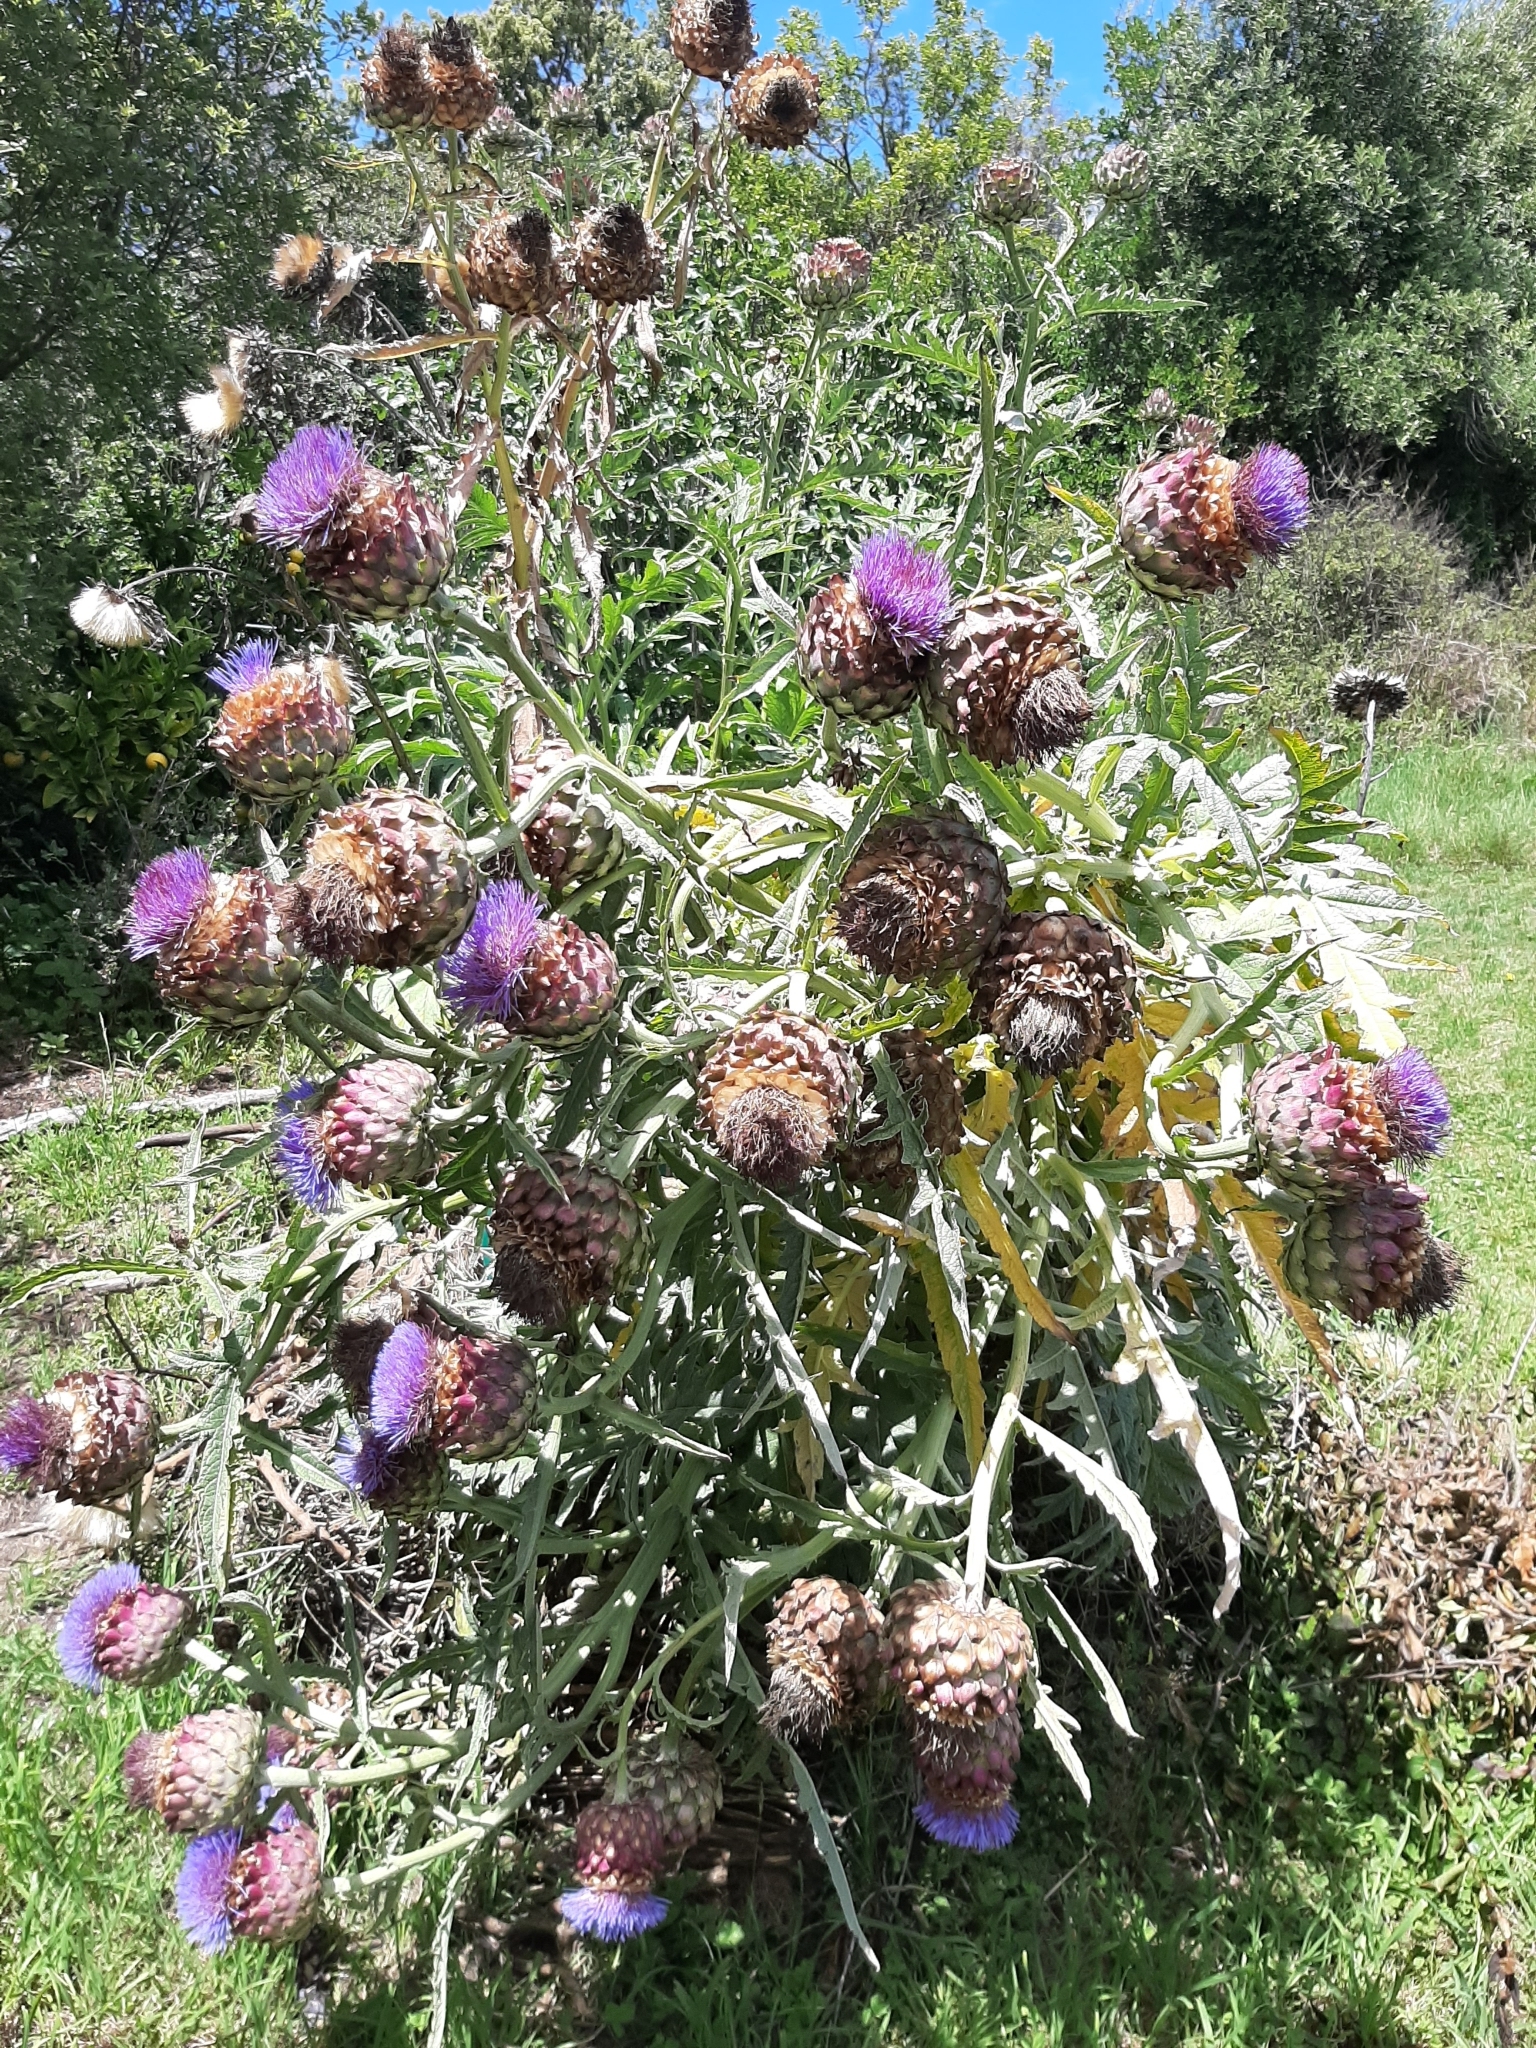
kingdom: Plantae
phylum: Tracheophyta
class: Magnoliopsida
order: Asterales
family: Asteraceae
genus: Cynara
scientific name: Cynara cardunculus
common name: Globe artichoke
